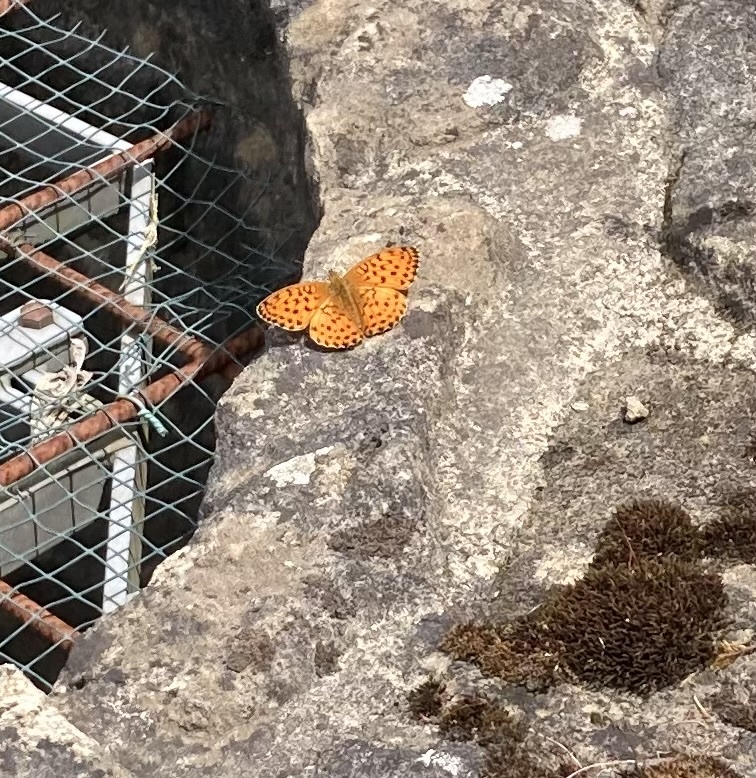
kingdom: Animalia
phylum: Arthropoda
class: Insecta
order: Lepidoptera
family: Nymphalidae
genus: Brenthis
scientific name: Brenthis daphne
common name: Marbled fritillary
